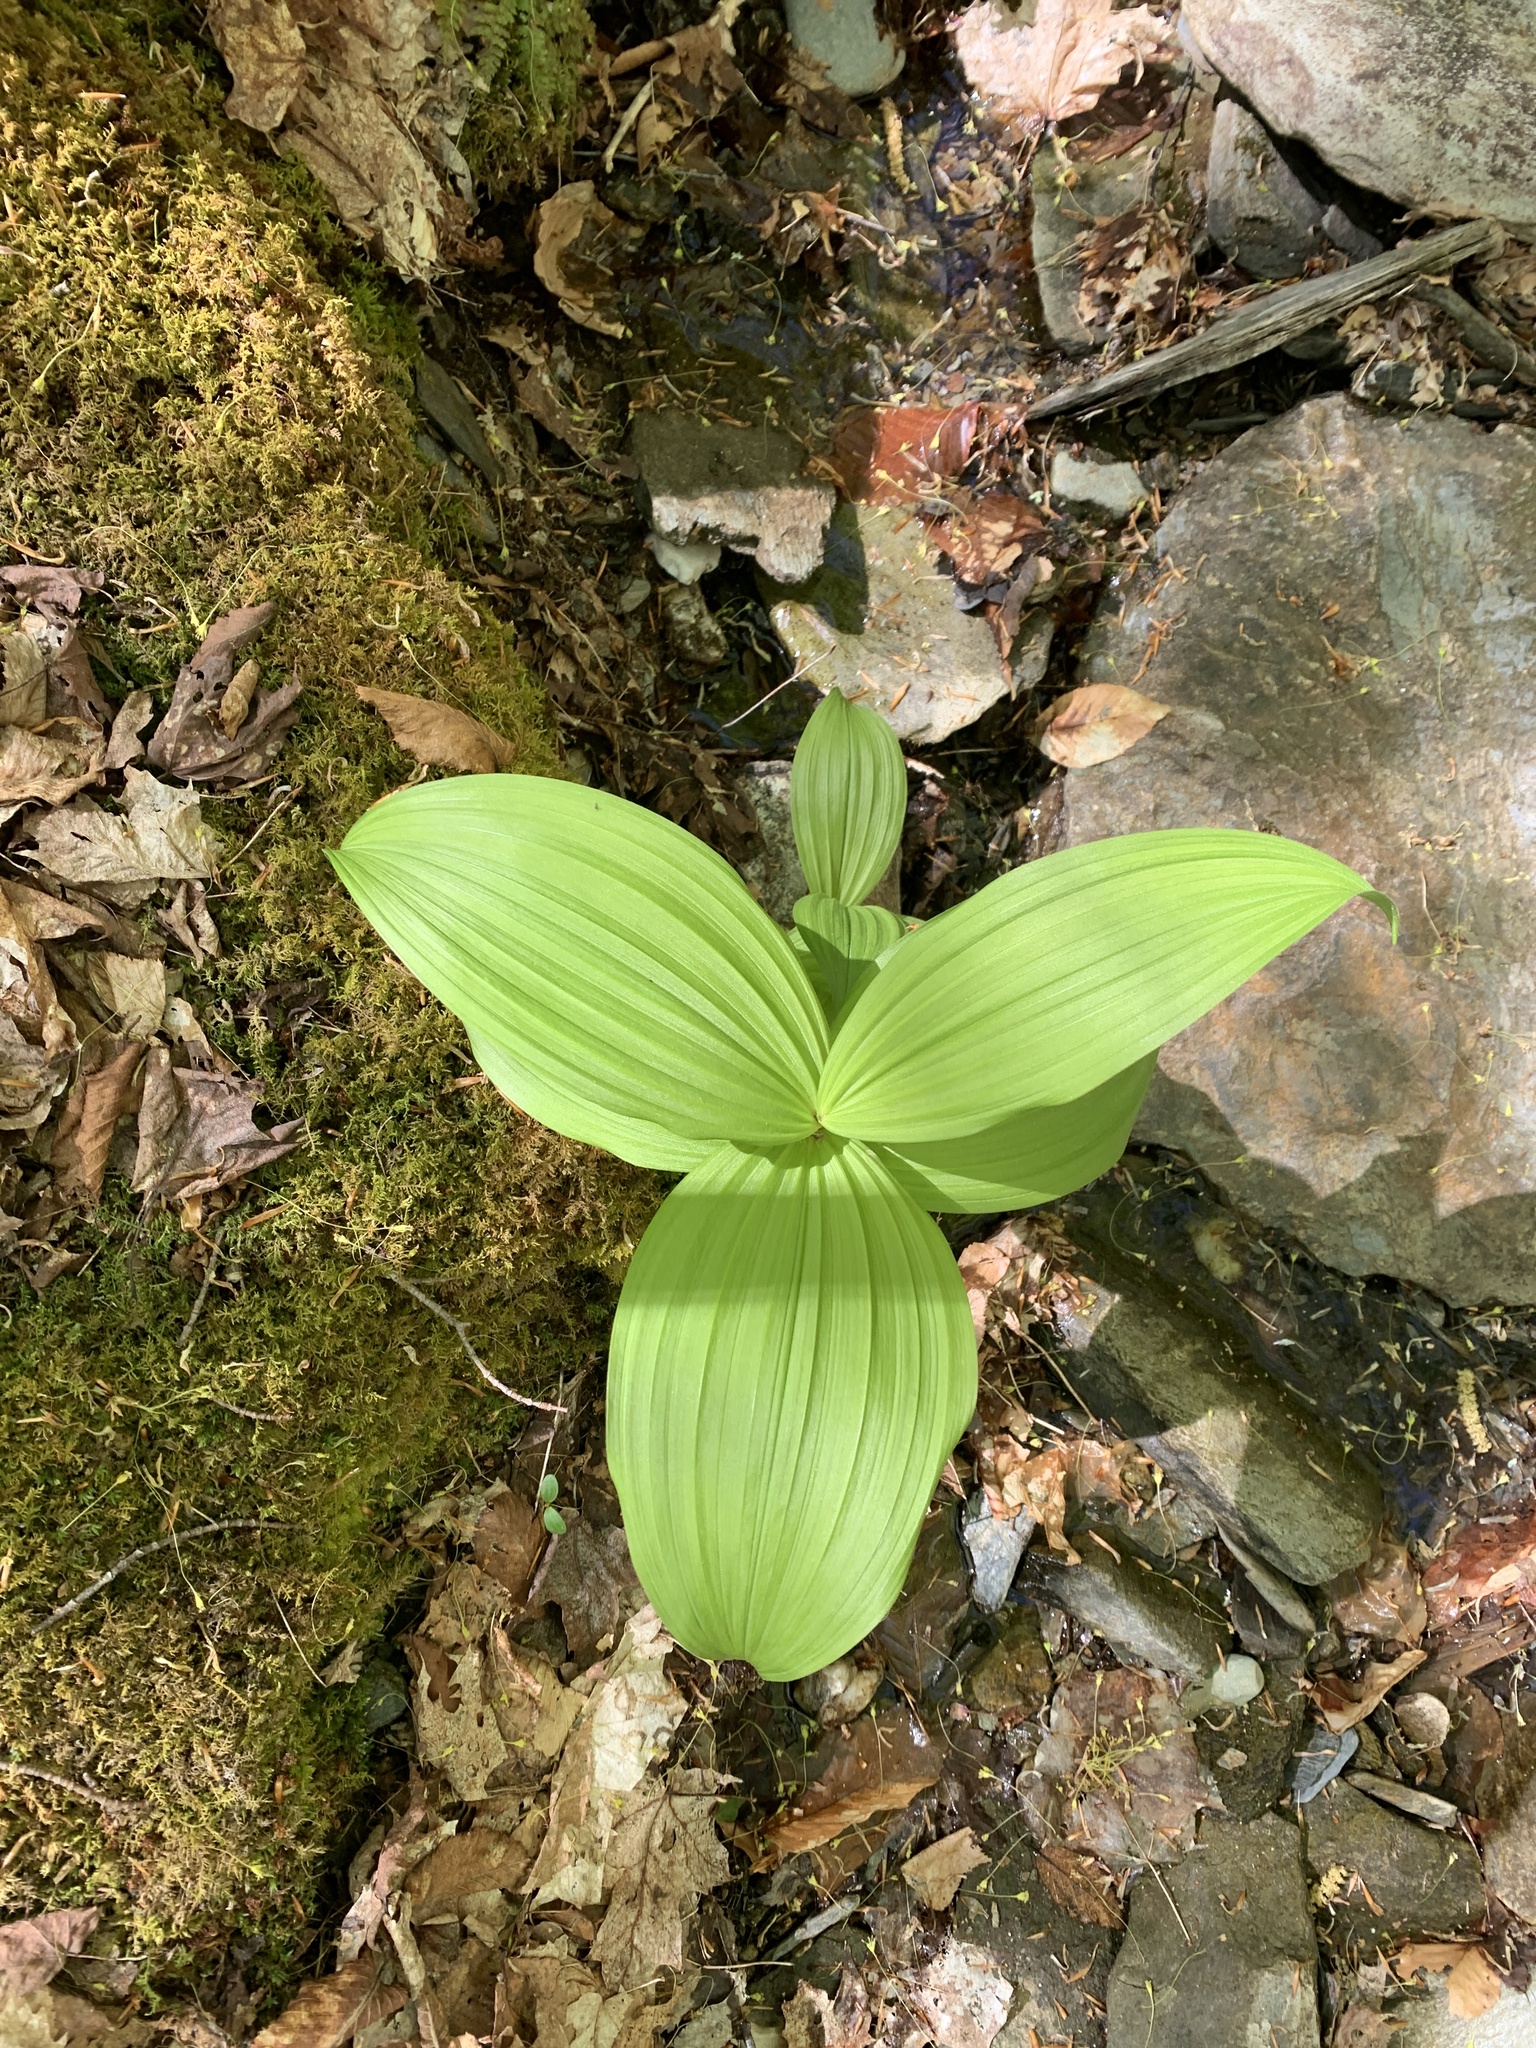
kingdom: Plantae
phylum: Tracheophyta
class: Liliopsida
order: Liliales
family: Melanthiaceae
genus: Veratrum
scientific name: Veratrum viride
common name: American false hellebore
